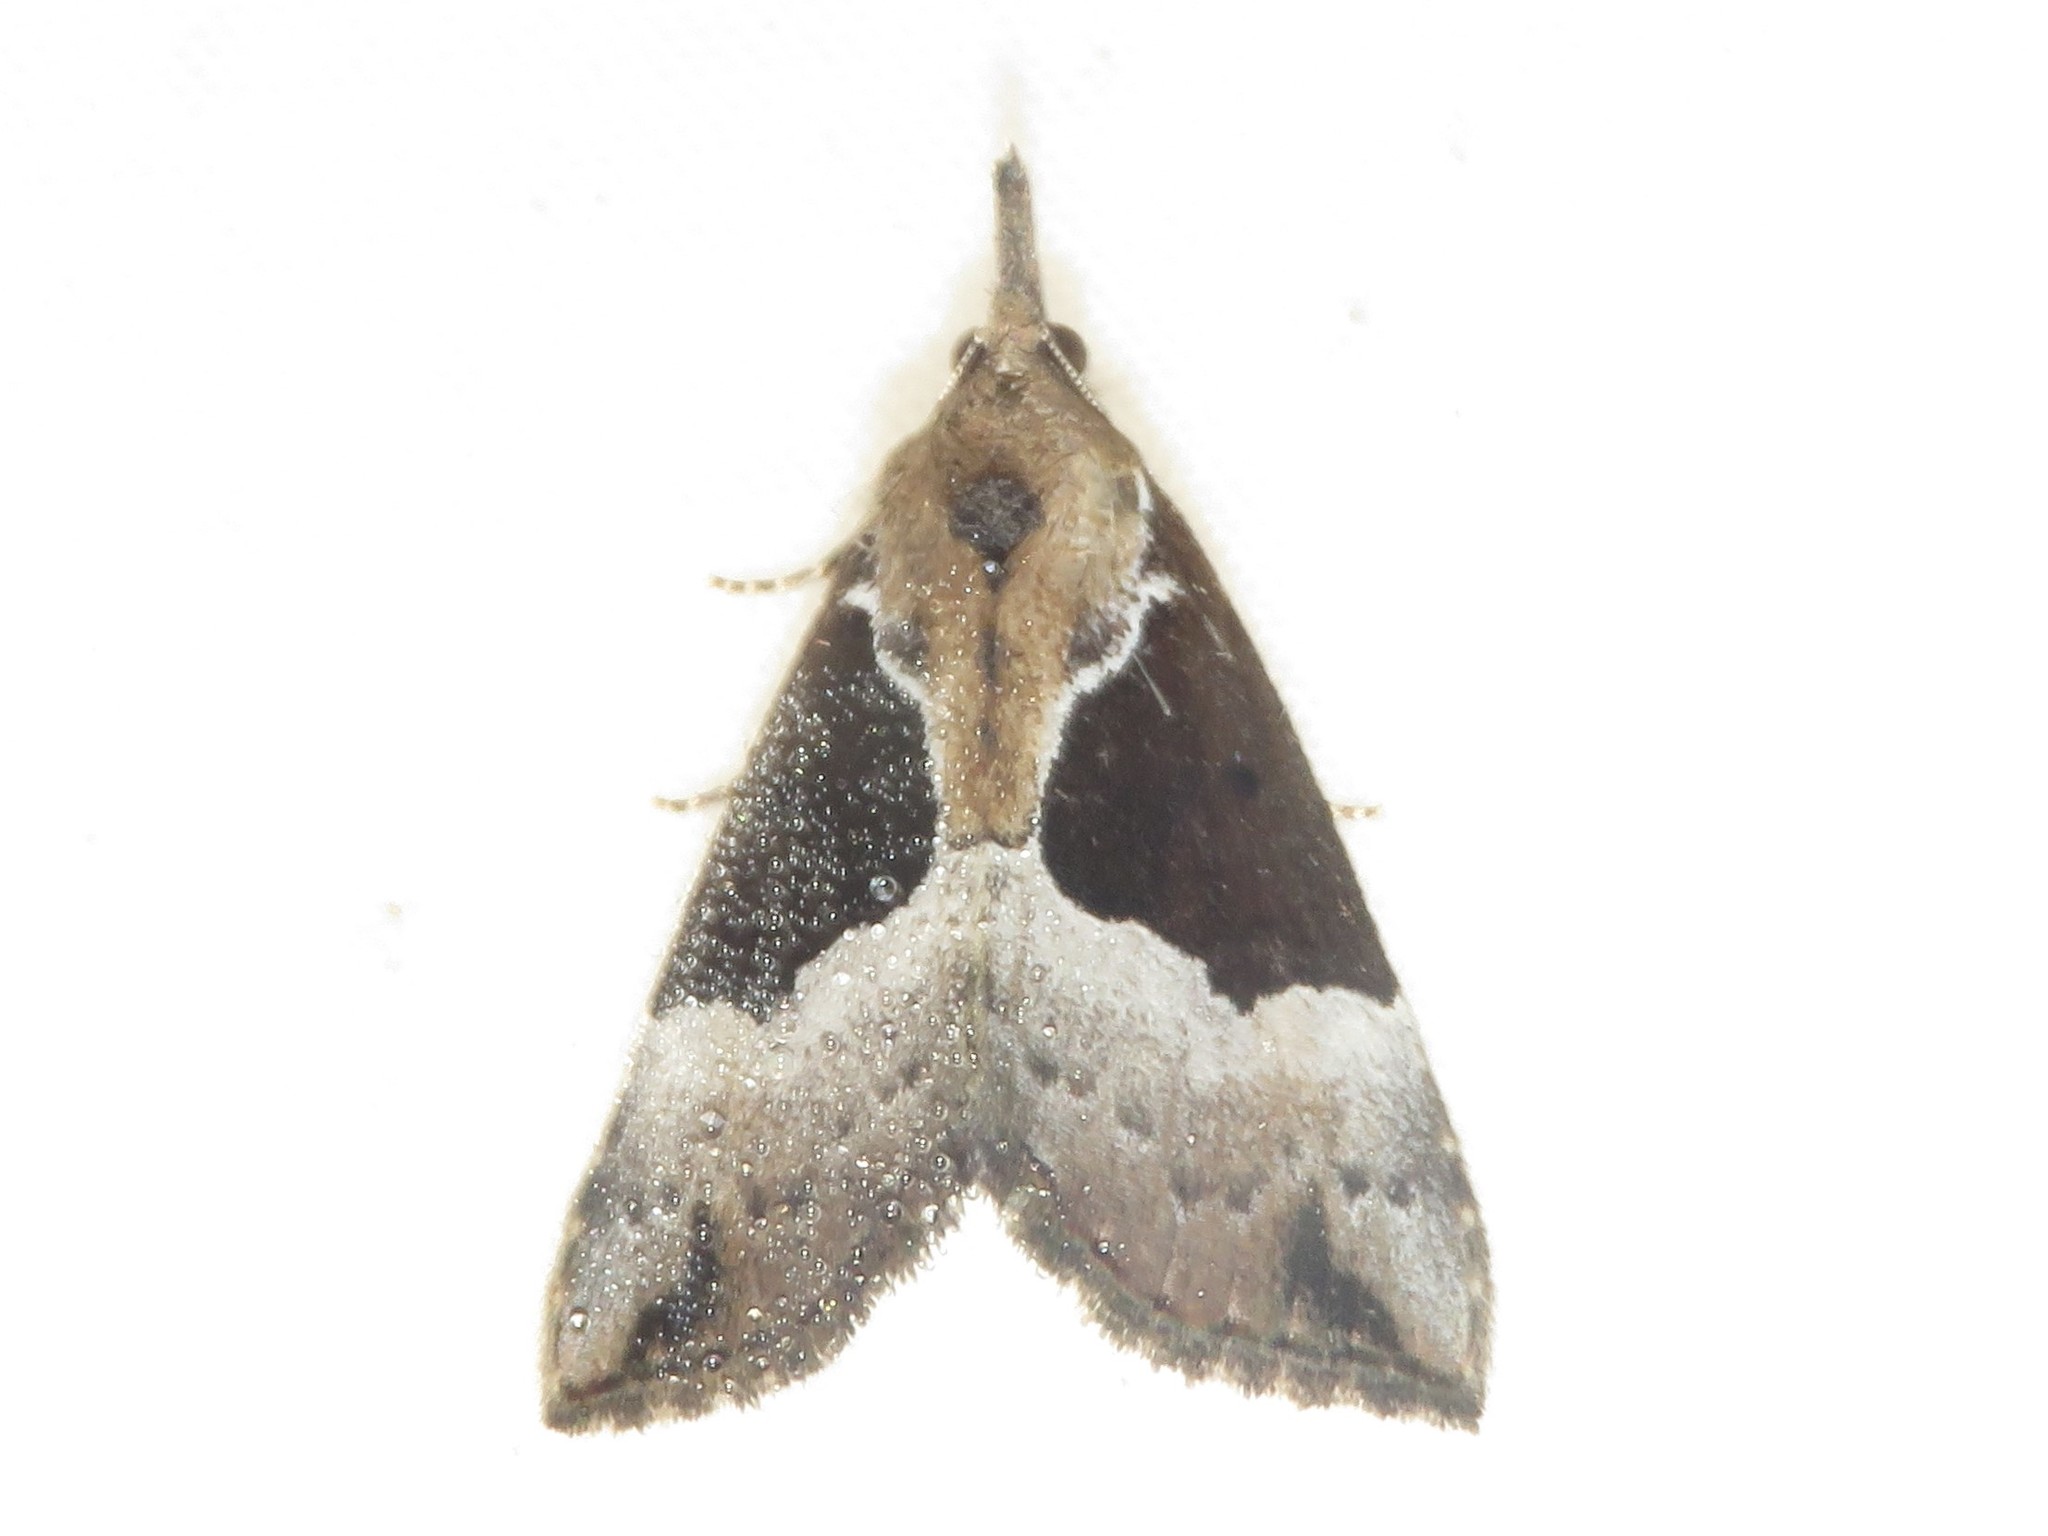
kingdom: Animalia
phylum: Arthropoda
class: Insecta
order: Lepidoptera
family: Erebidae
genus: Hypena
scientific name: Hypena bijugalis
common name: Dimorphic bomolocha moth
